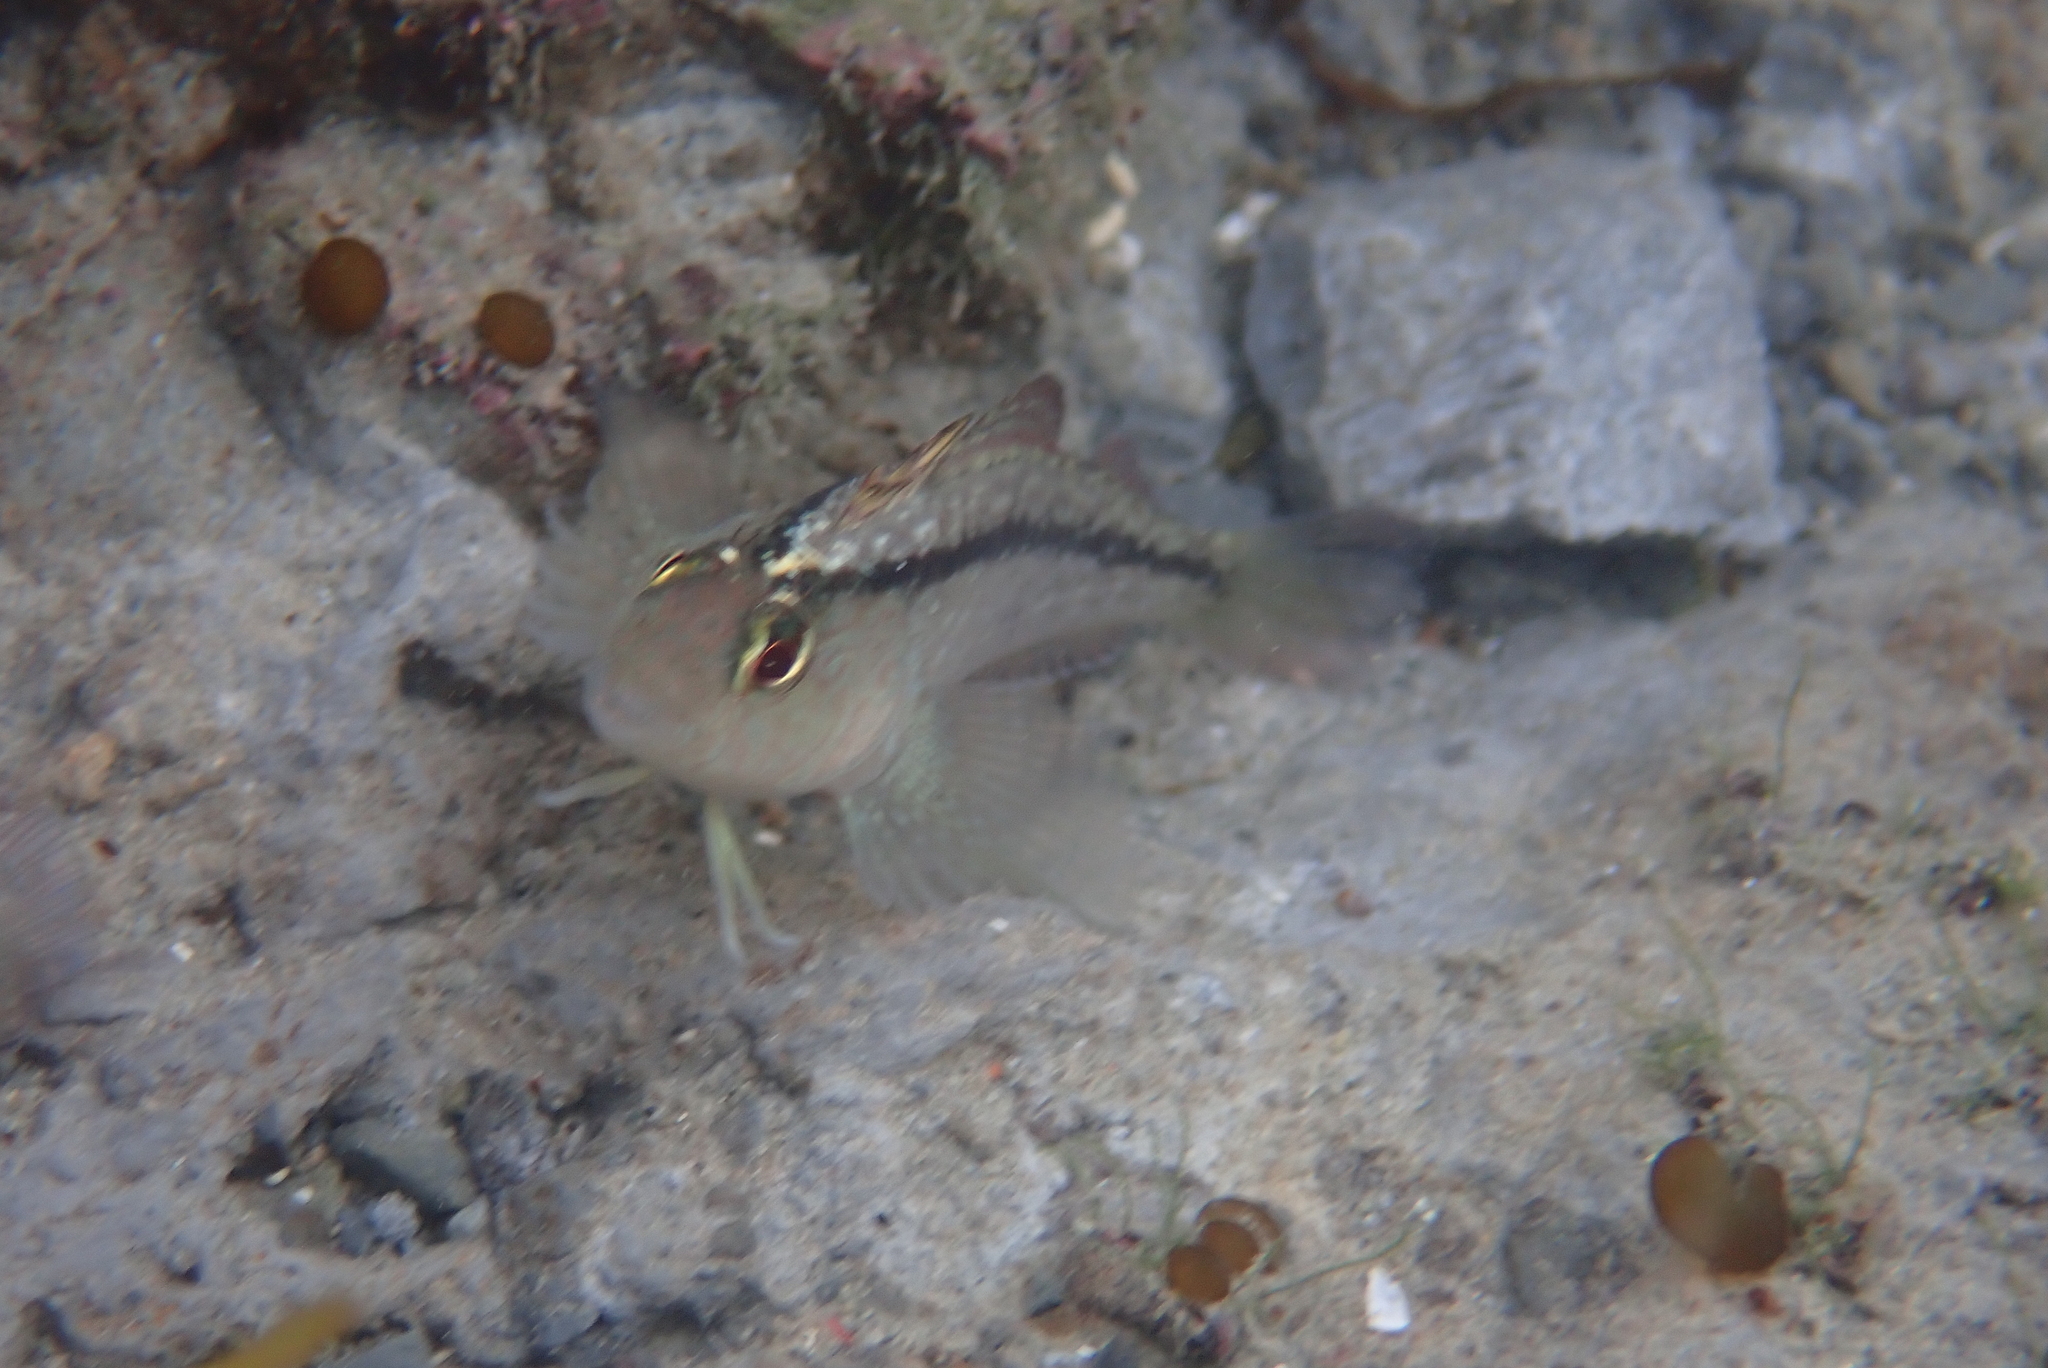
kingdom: Animalia
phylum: Chordata
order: Perciformes
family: Tripterygiidae
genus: Forsterygion
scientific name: Forsterygion lapillum
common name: Common triplefin
